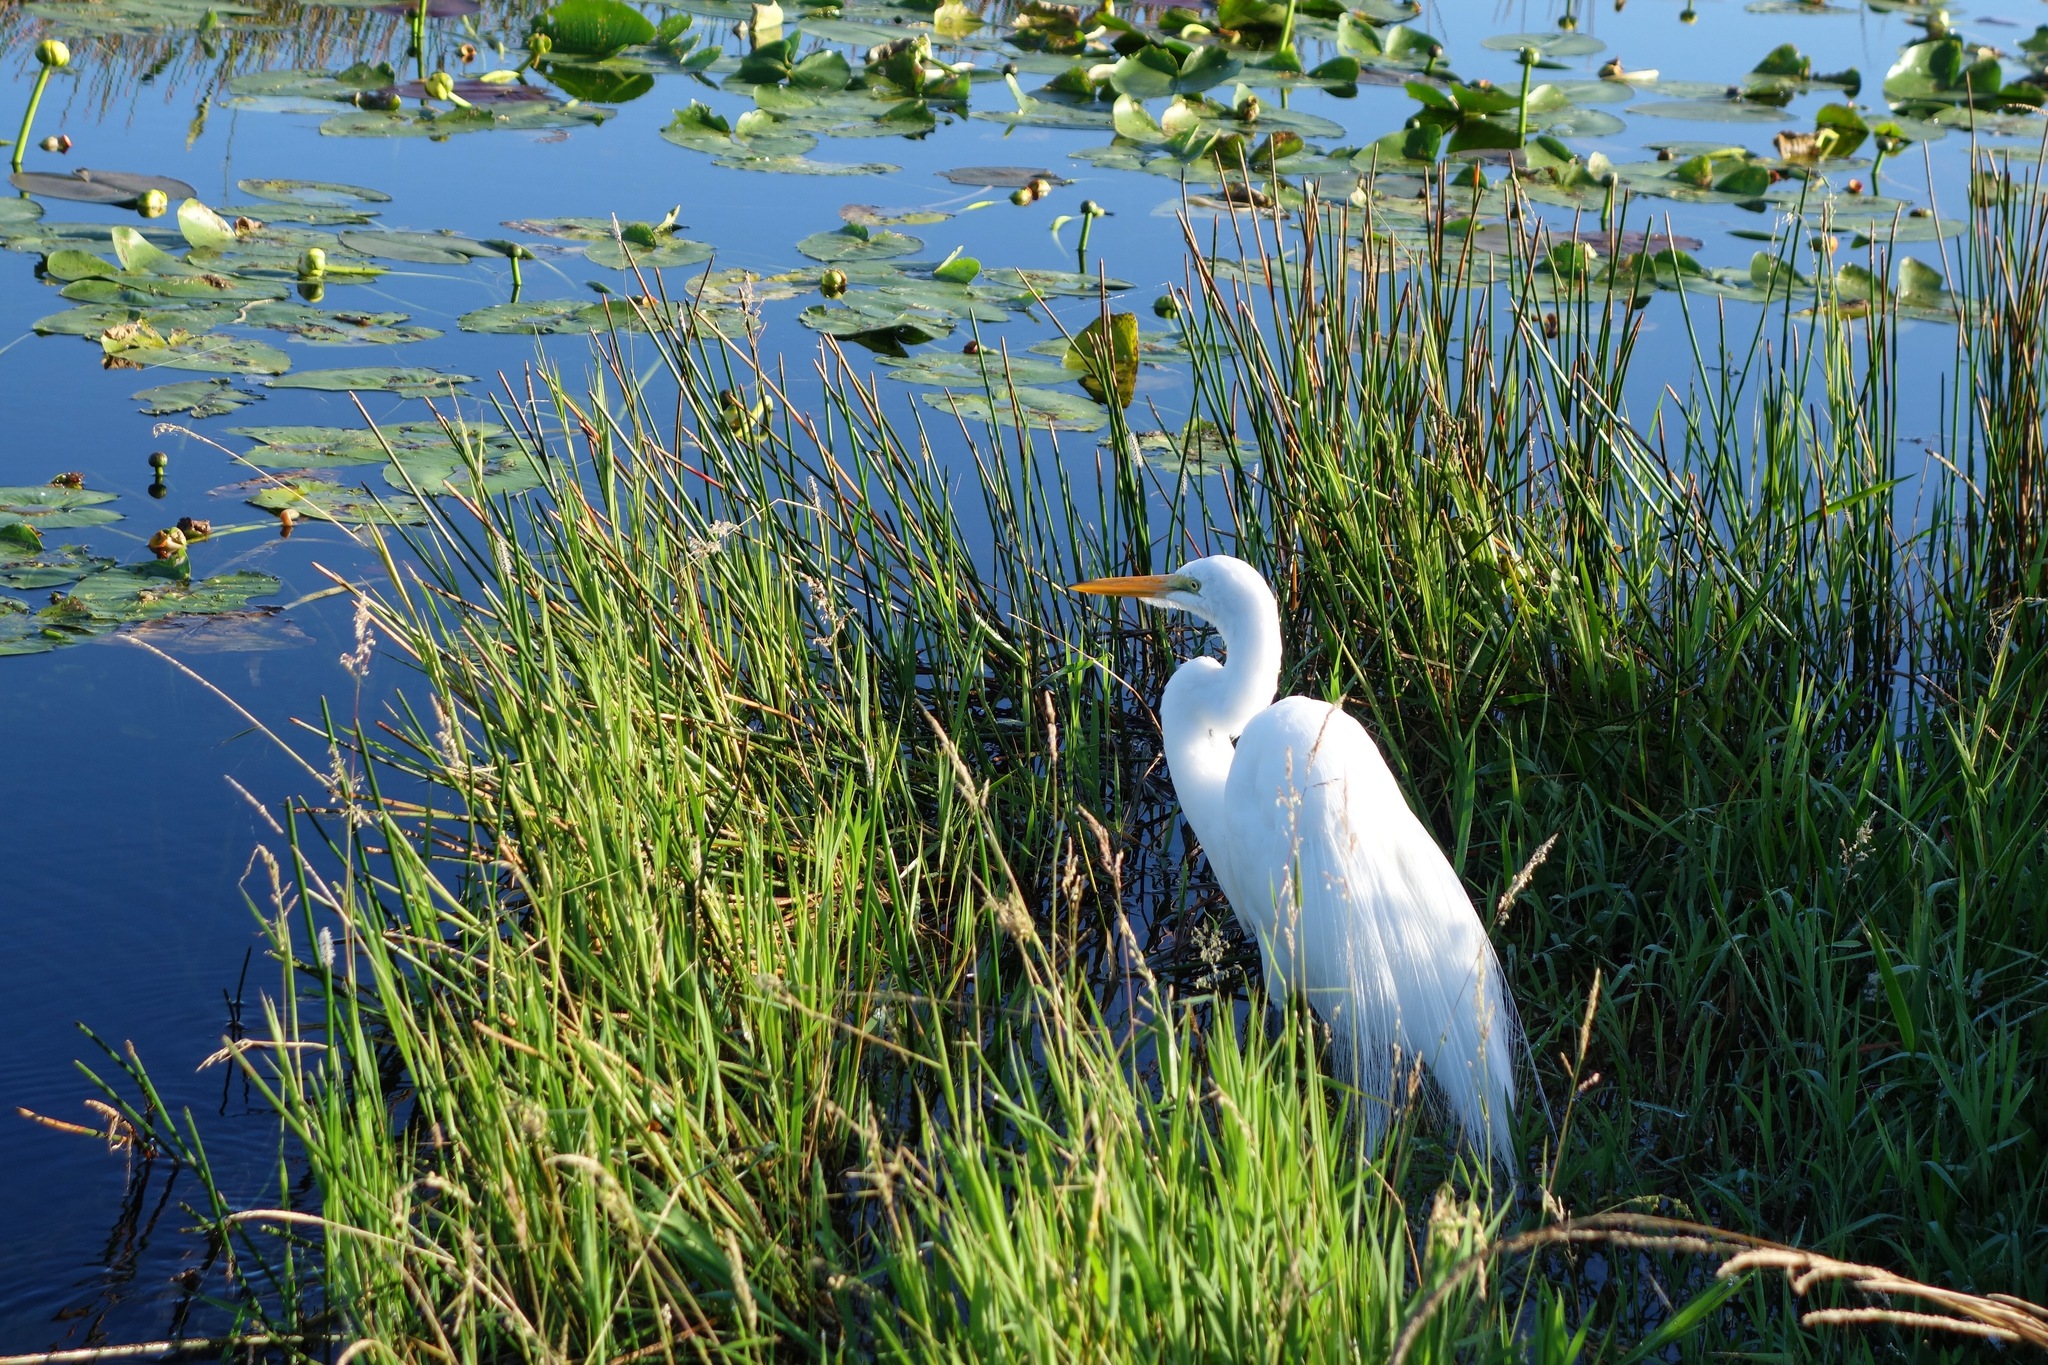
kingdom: Animalia
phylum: Chordata
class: Aves
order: Pelecaniformes
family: Ardeidae
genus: Ardea
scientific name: Ardea alba
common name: Great egret
